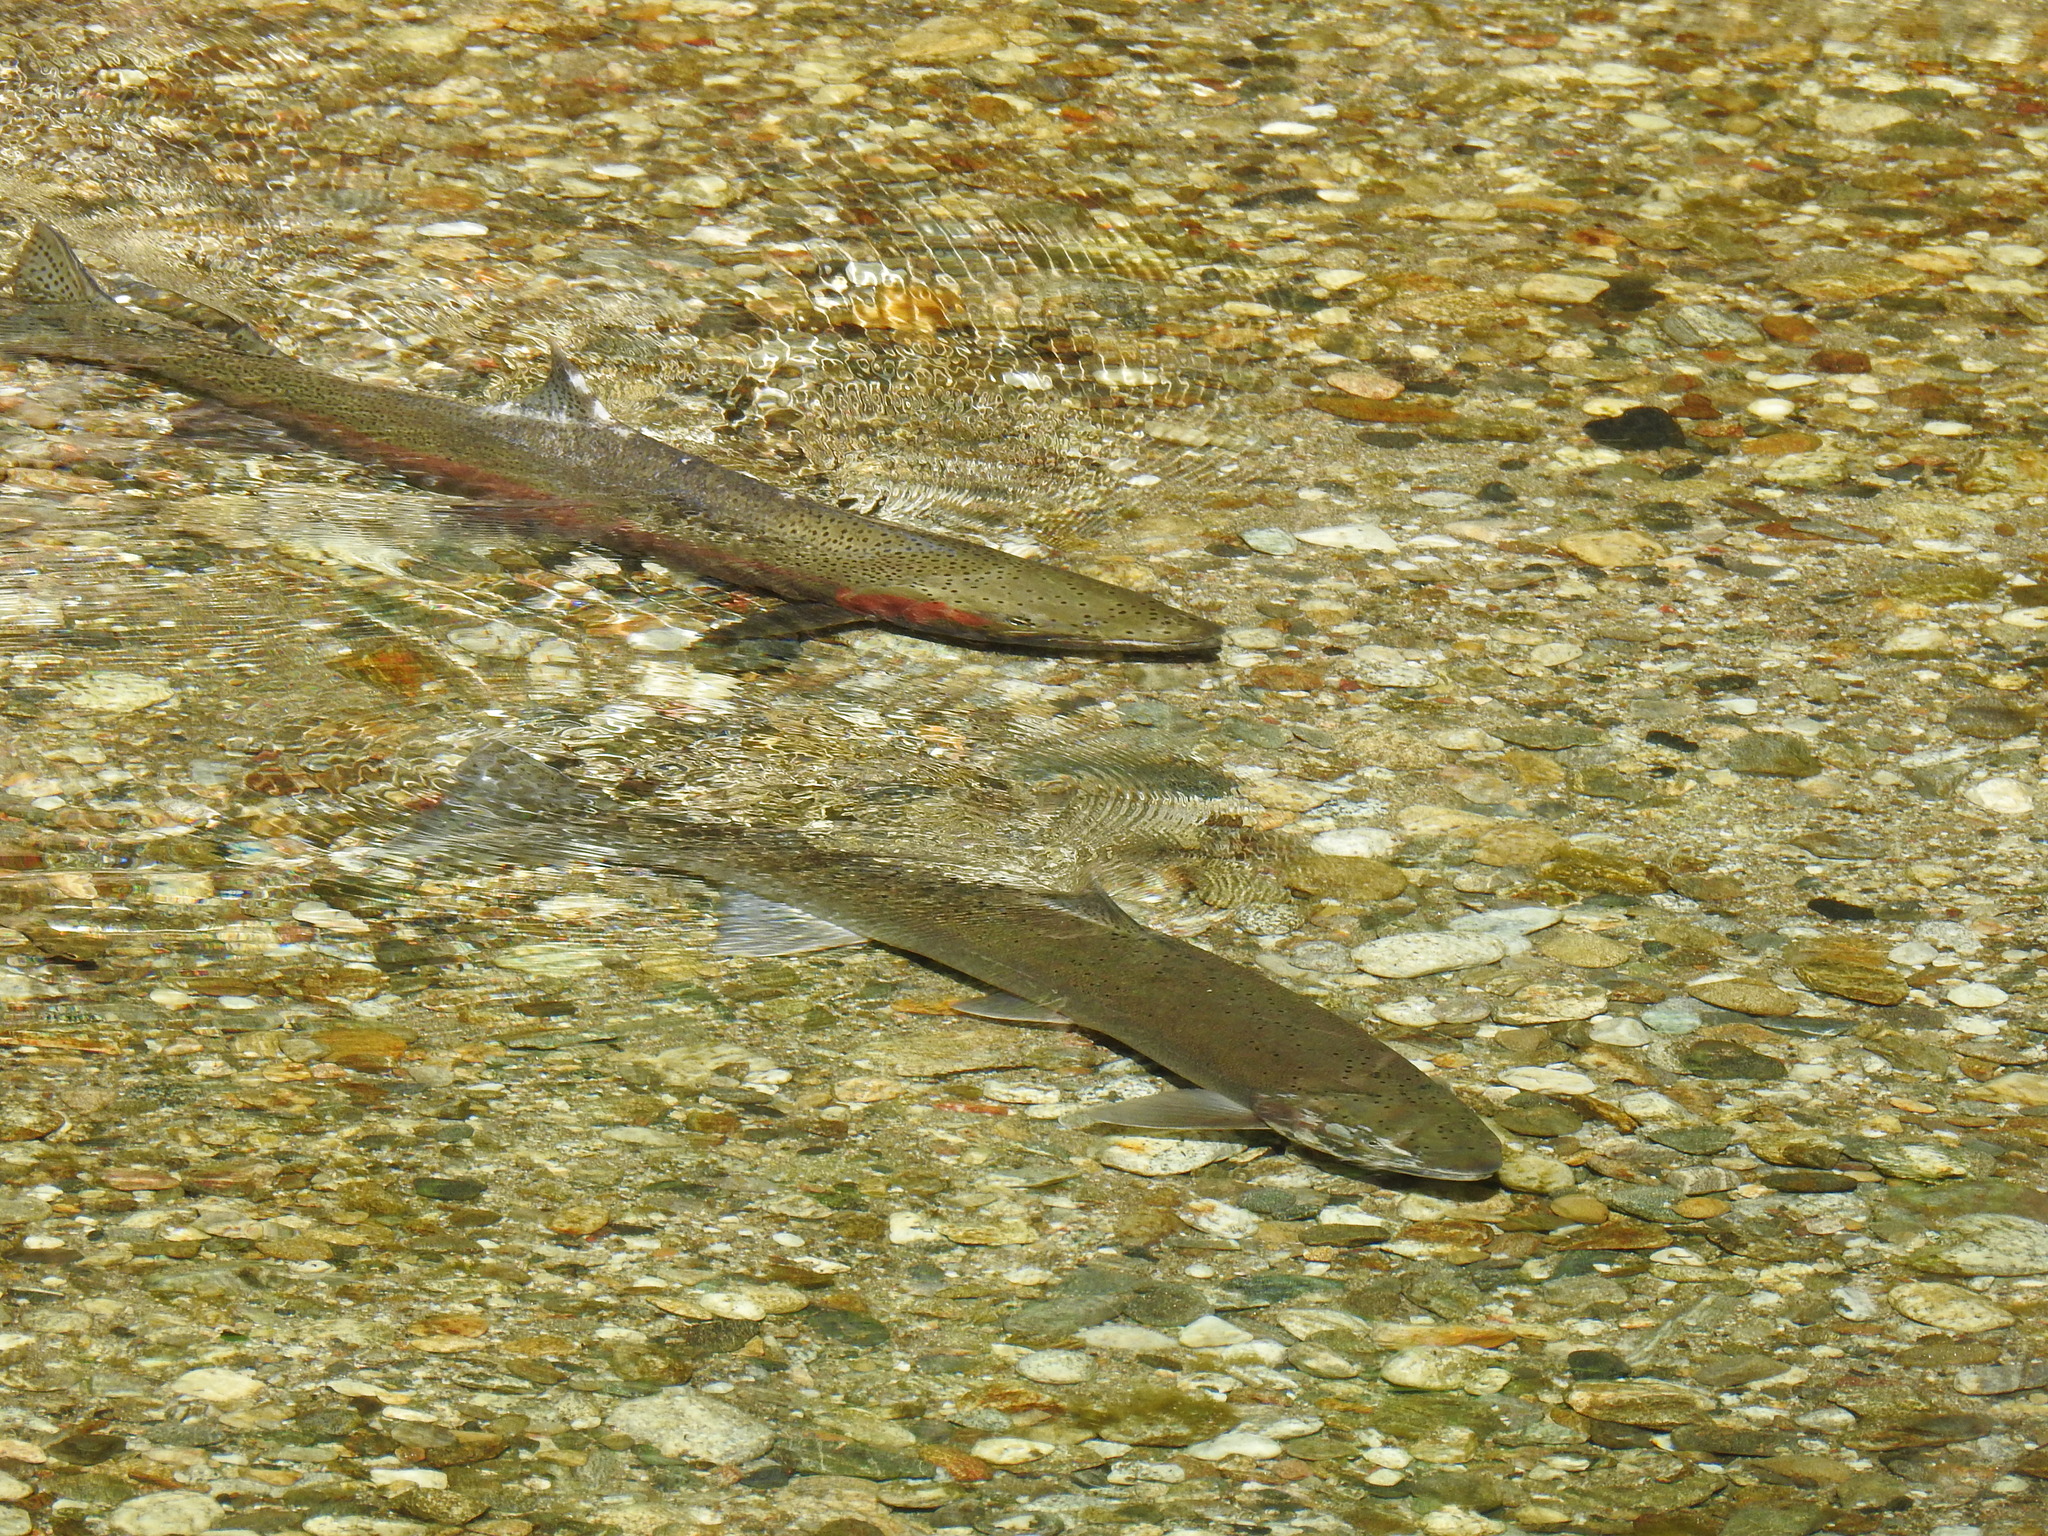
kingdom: Animalia
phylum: Chordata
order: Salmoniformes
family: Salmonidae
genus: Oncorhynchus
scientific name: Oncorhynchus mykiss
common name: Rainbow trout
